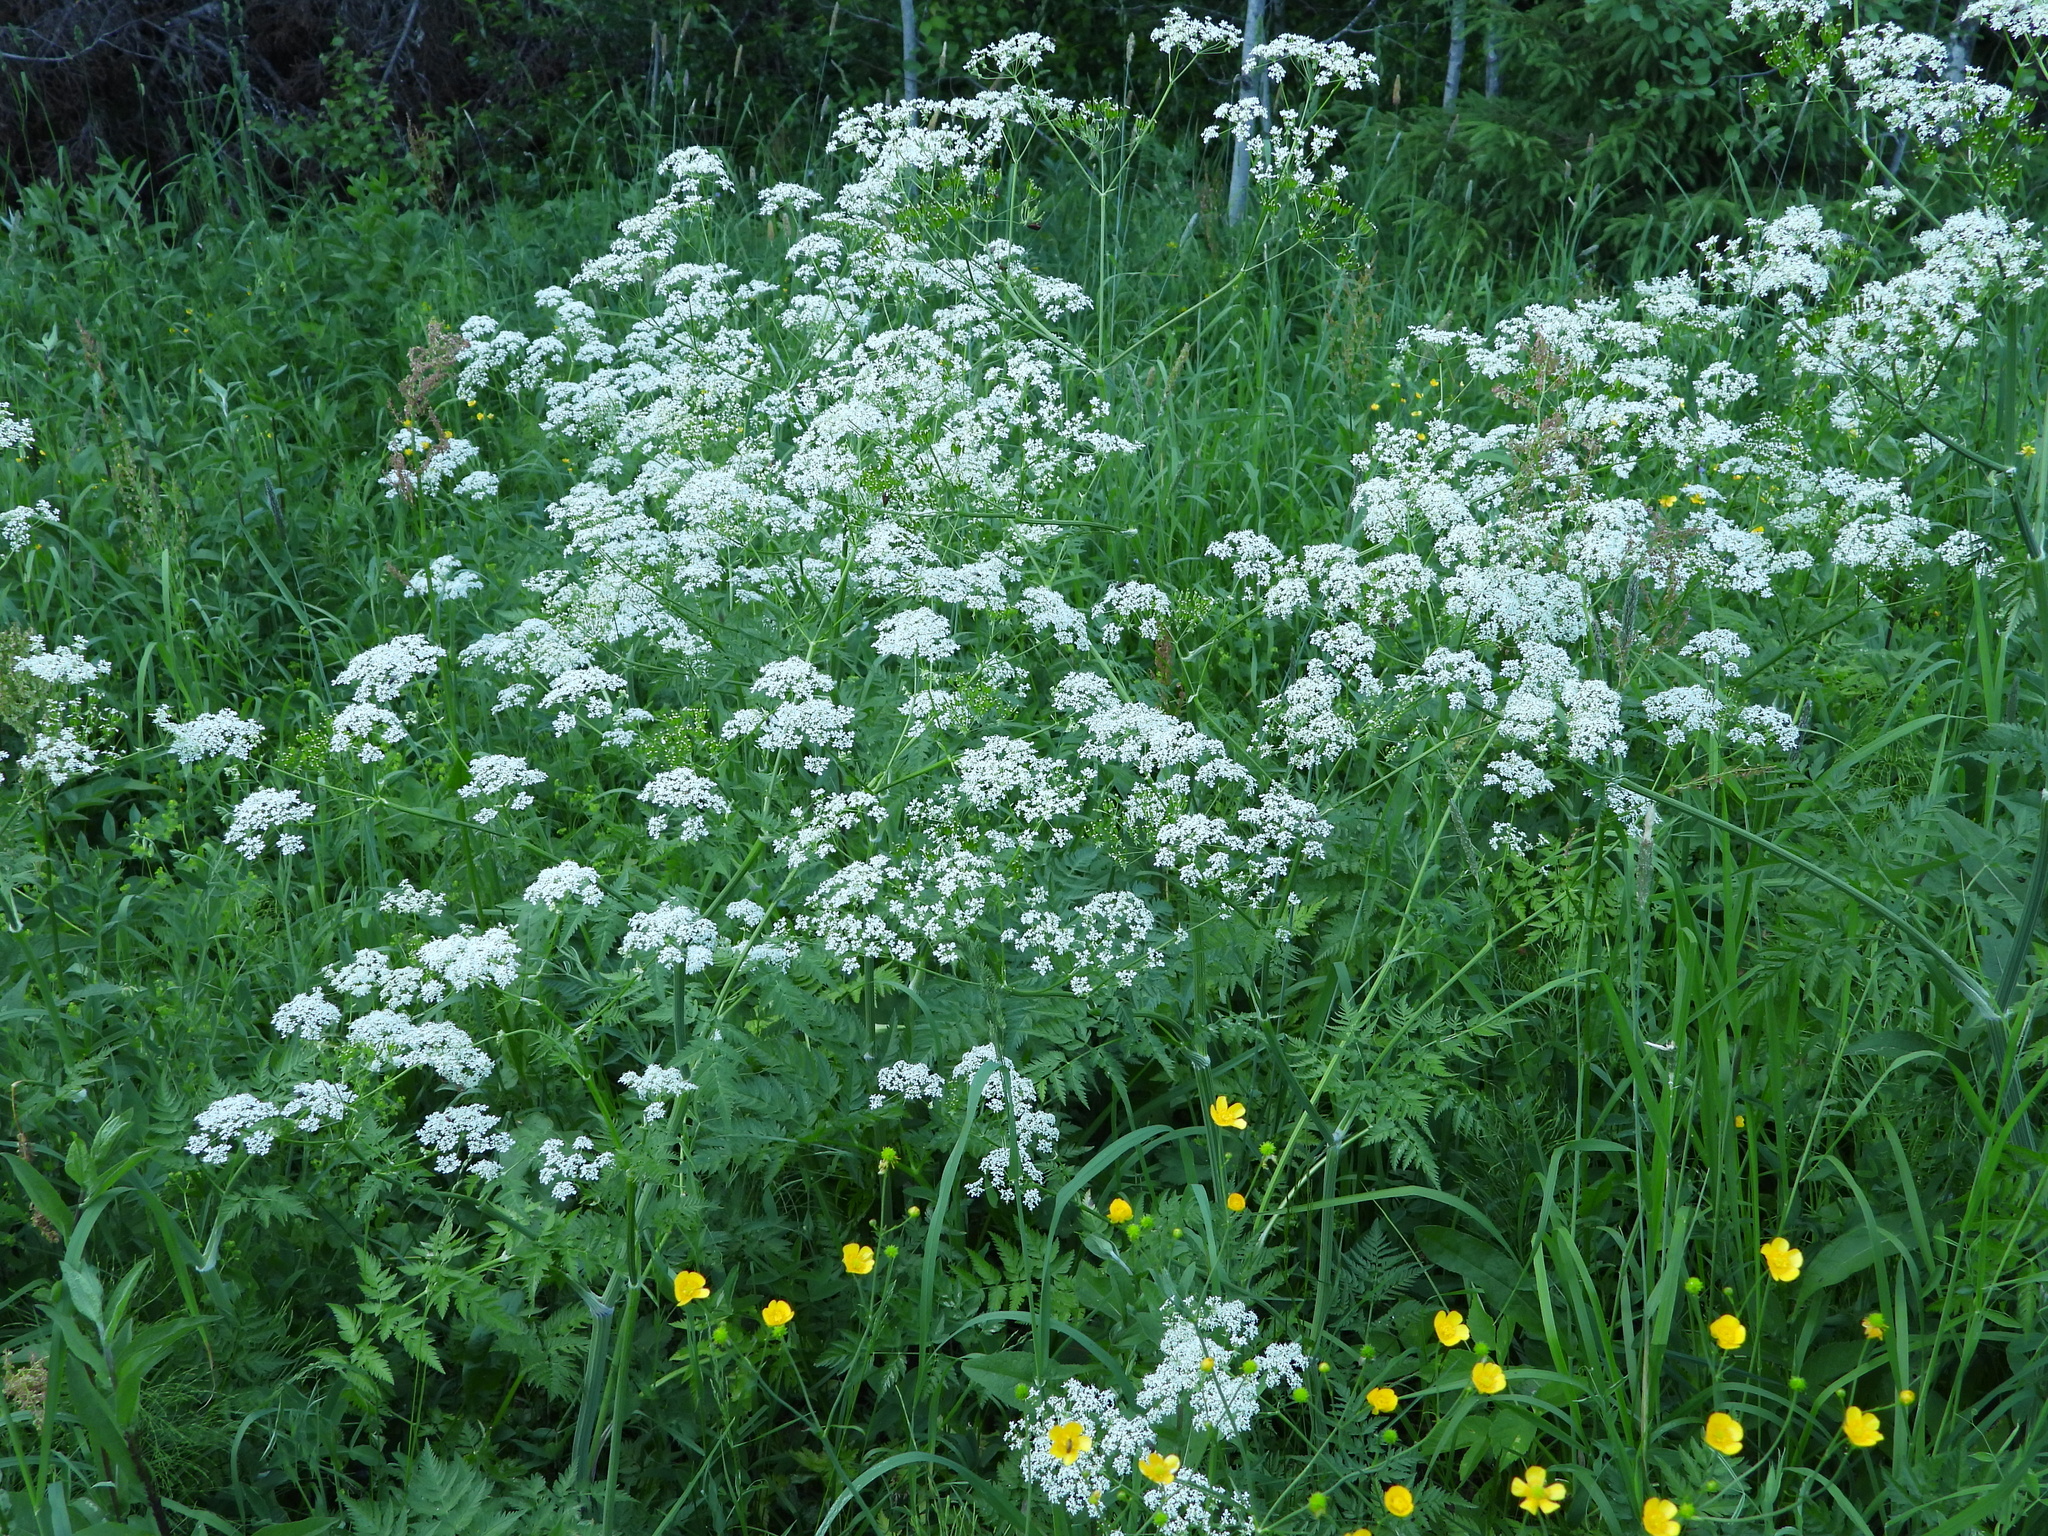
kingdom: Plantae
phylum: Tracheophyta
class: Magnoliopsida
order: Apiales
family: Apiaceae
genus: Anthriscus
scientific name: Anthriscus sylvestris
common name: Cow parsley
